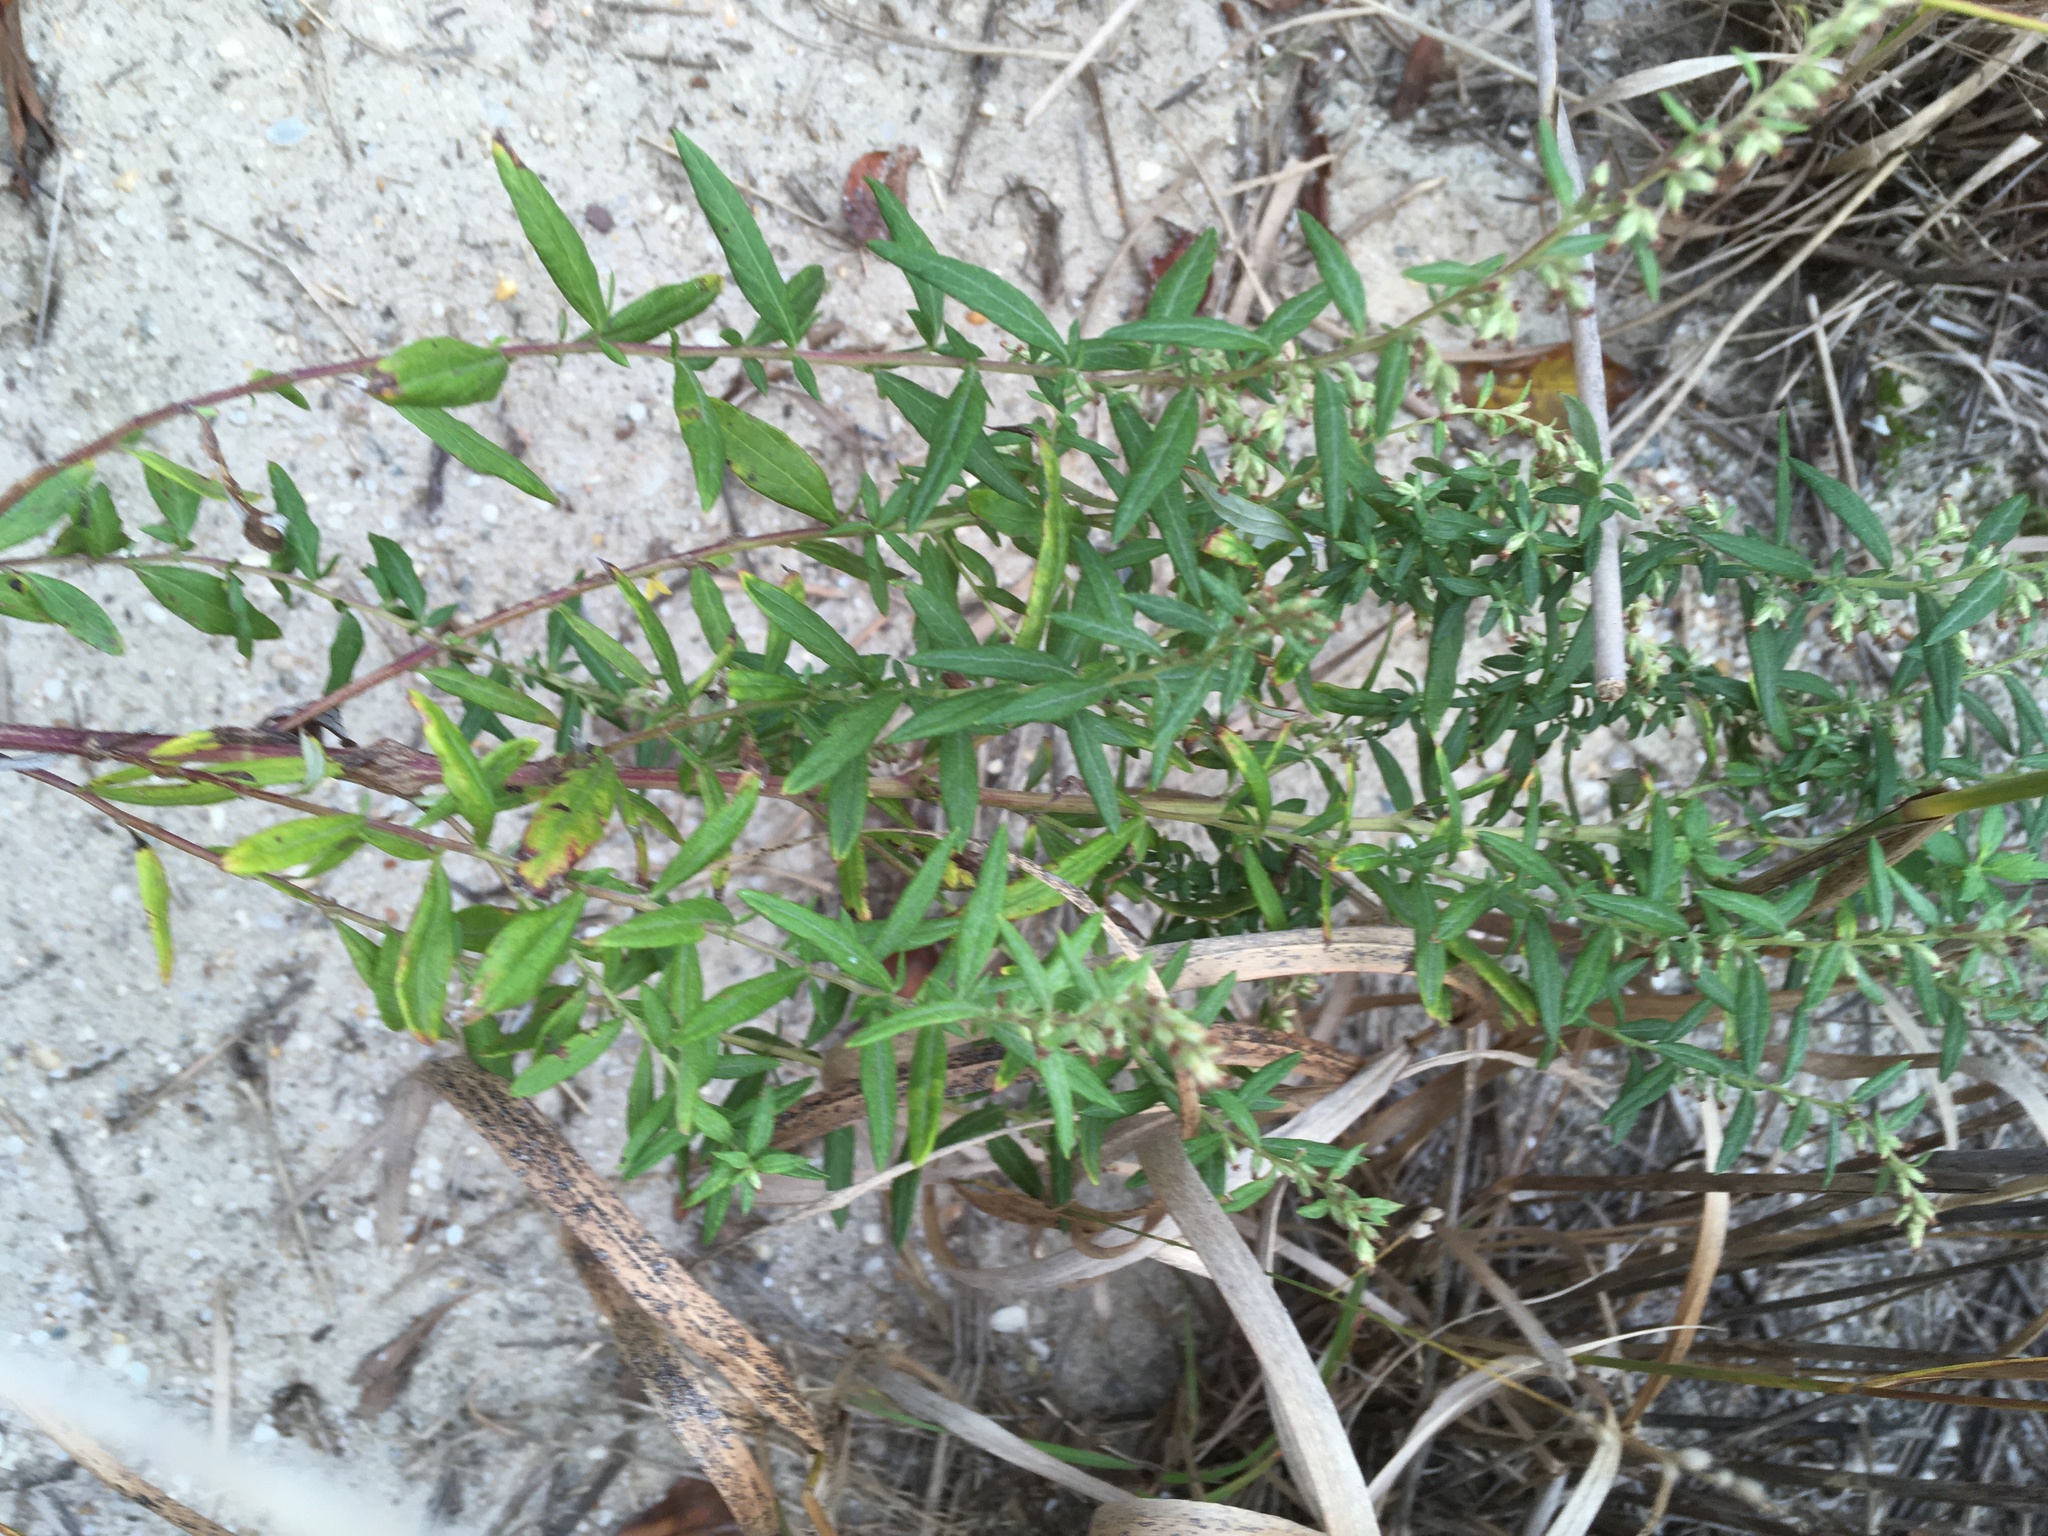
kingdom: Plantae
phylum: Tracheophyta
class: Magnoliopsida
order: Asterales
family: Asteraceae
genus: Artemisia
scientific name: Artemisia vulgaris
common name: Mugwort
